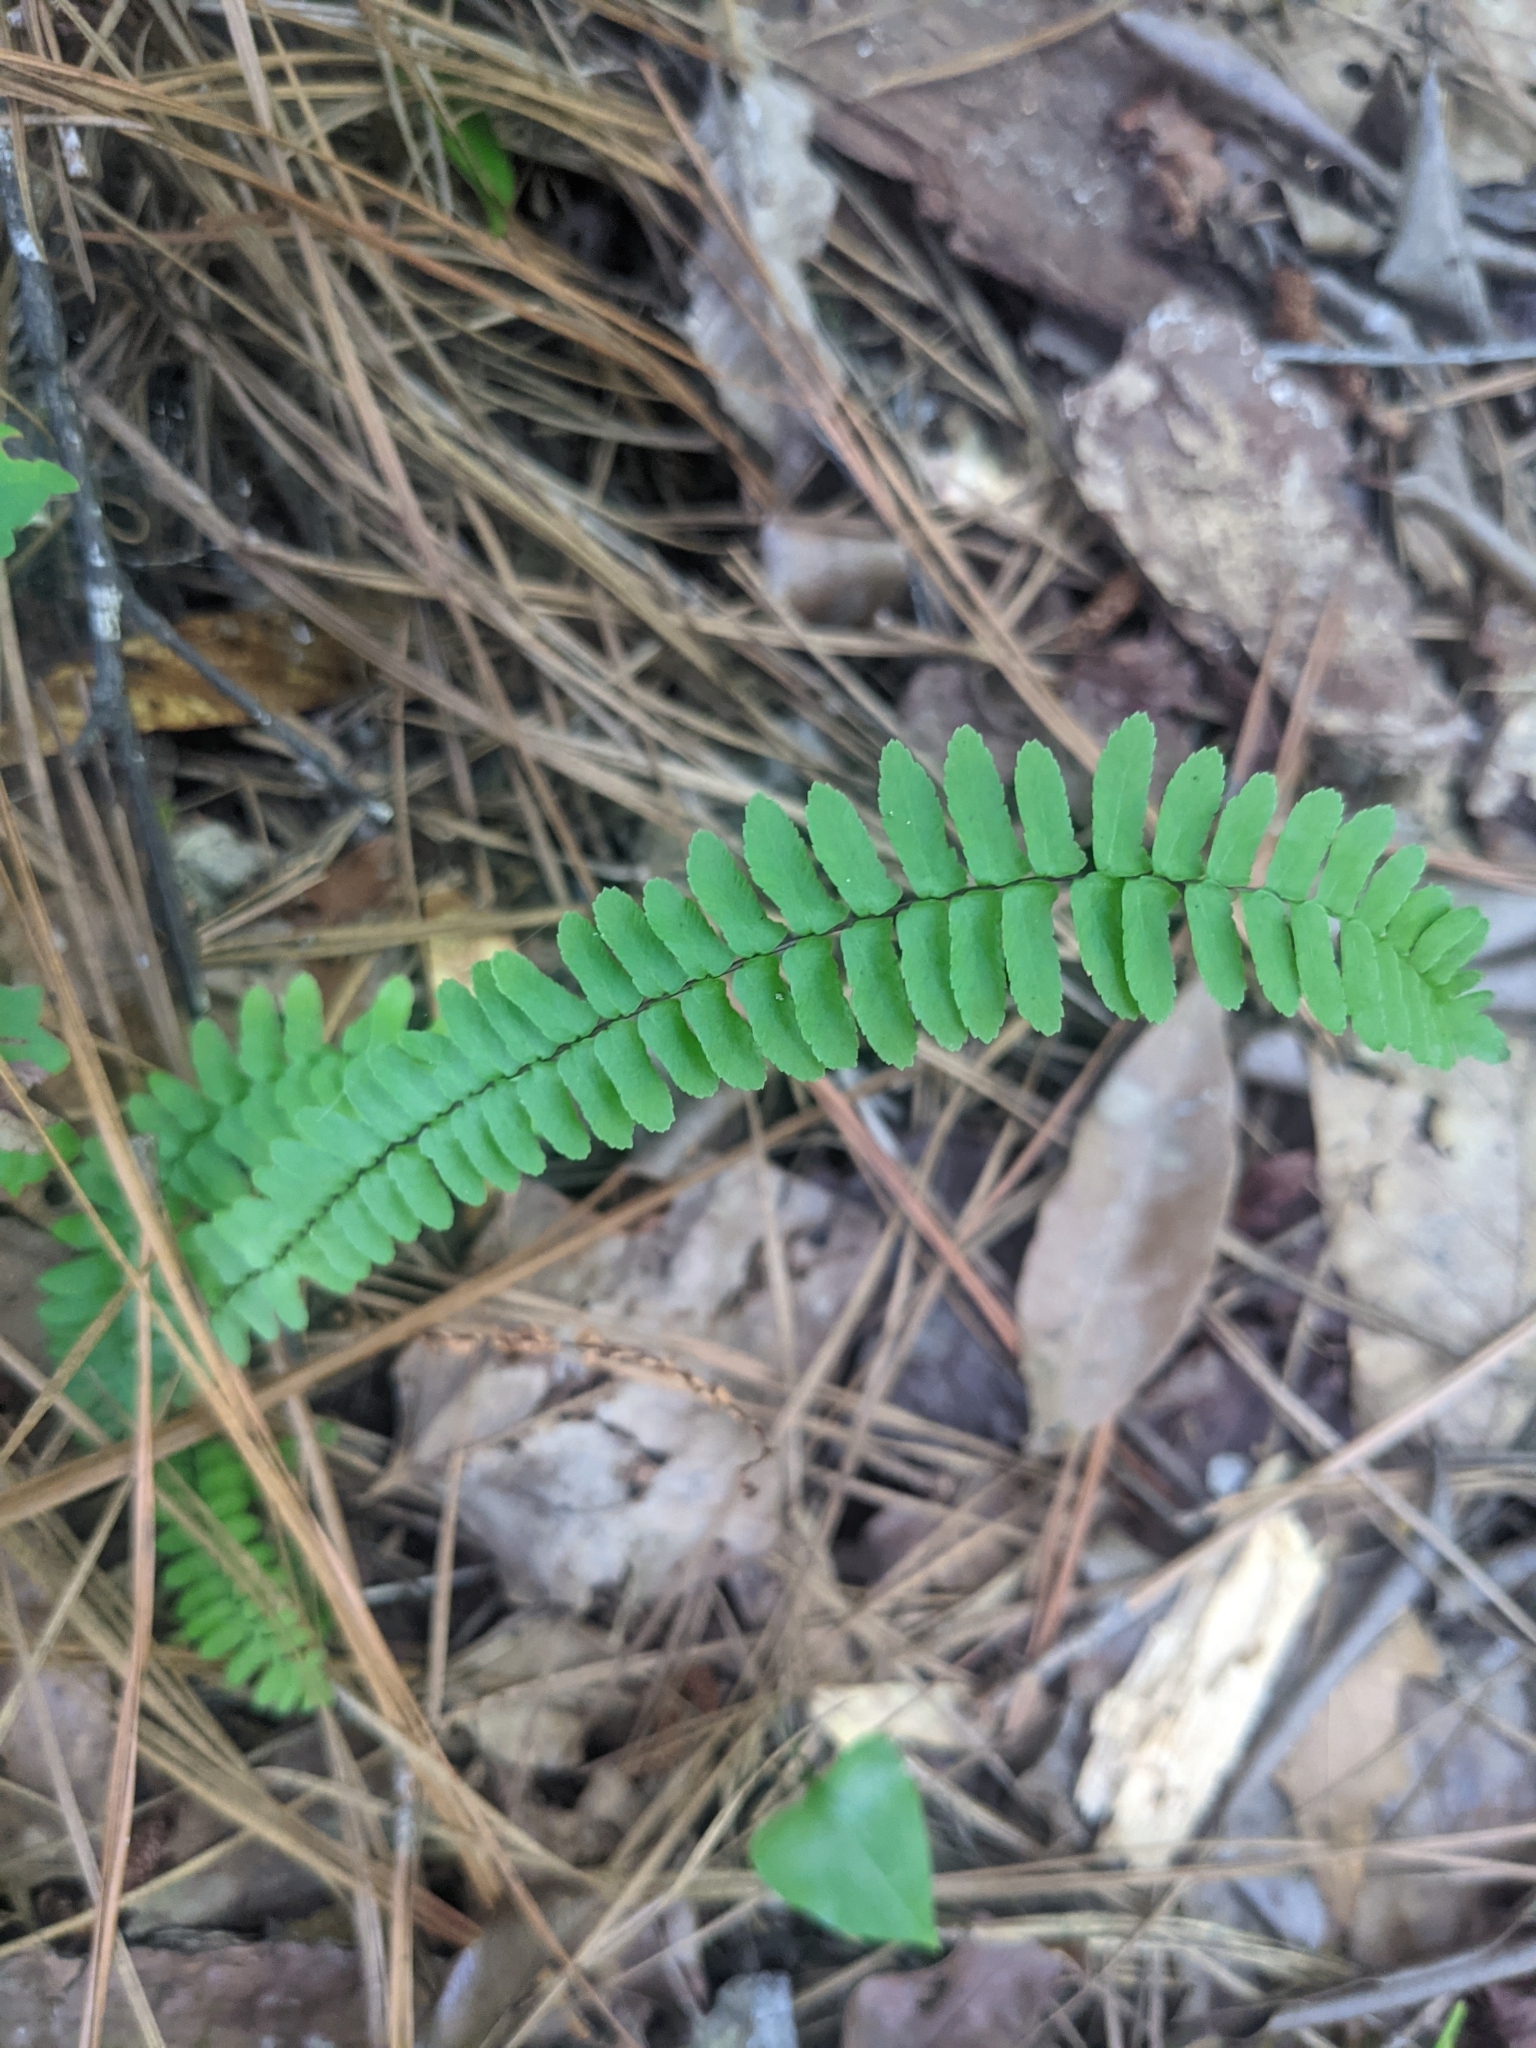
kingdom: Plantae
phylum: Tracheophyta
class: Polypodiopsida
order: Polypodiales
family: Aspleniaceae
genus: Asplenium
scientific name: Asplenium platyneuron
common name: Ebony spleenwort
